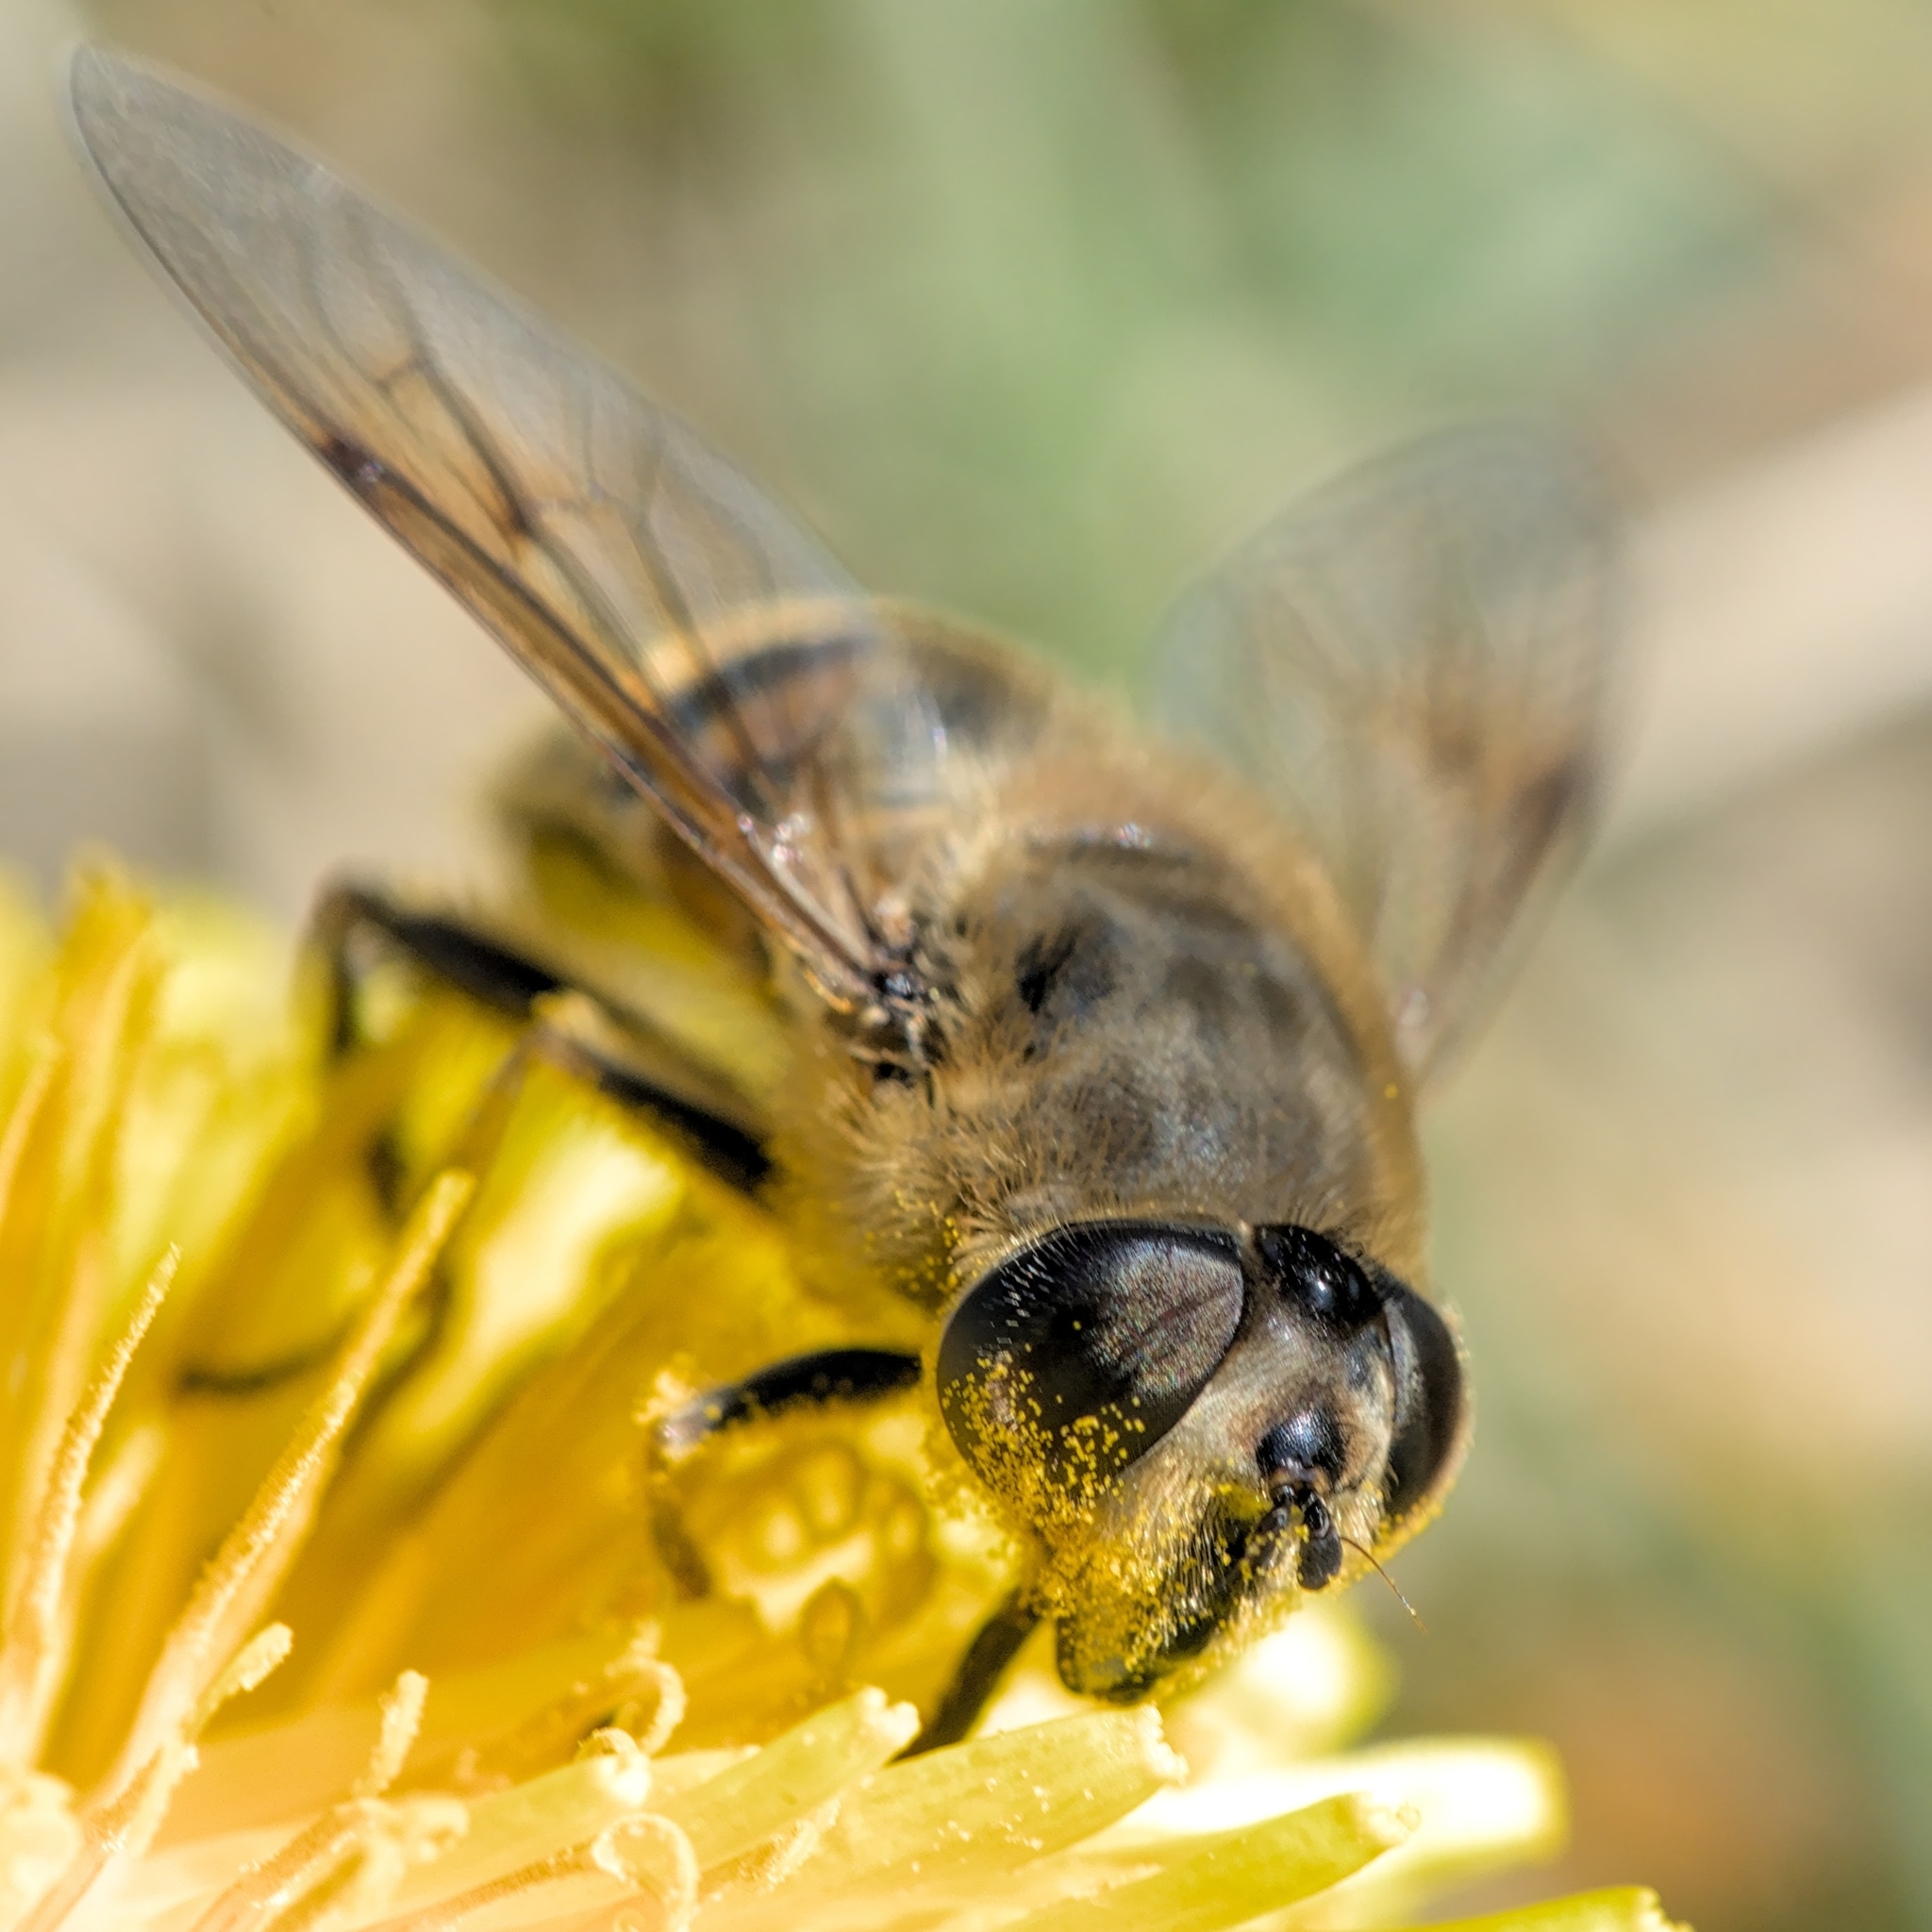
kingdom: Animalia
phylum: Arthropoda
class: Insecta
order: Diptera
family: Syrphidae
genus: Eristalis
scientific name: Eristalis tenax
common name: Drone fly
